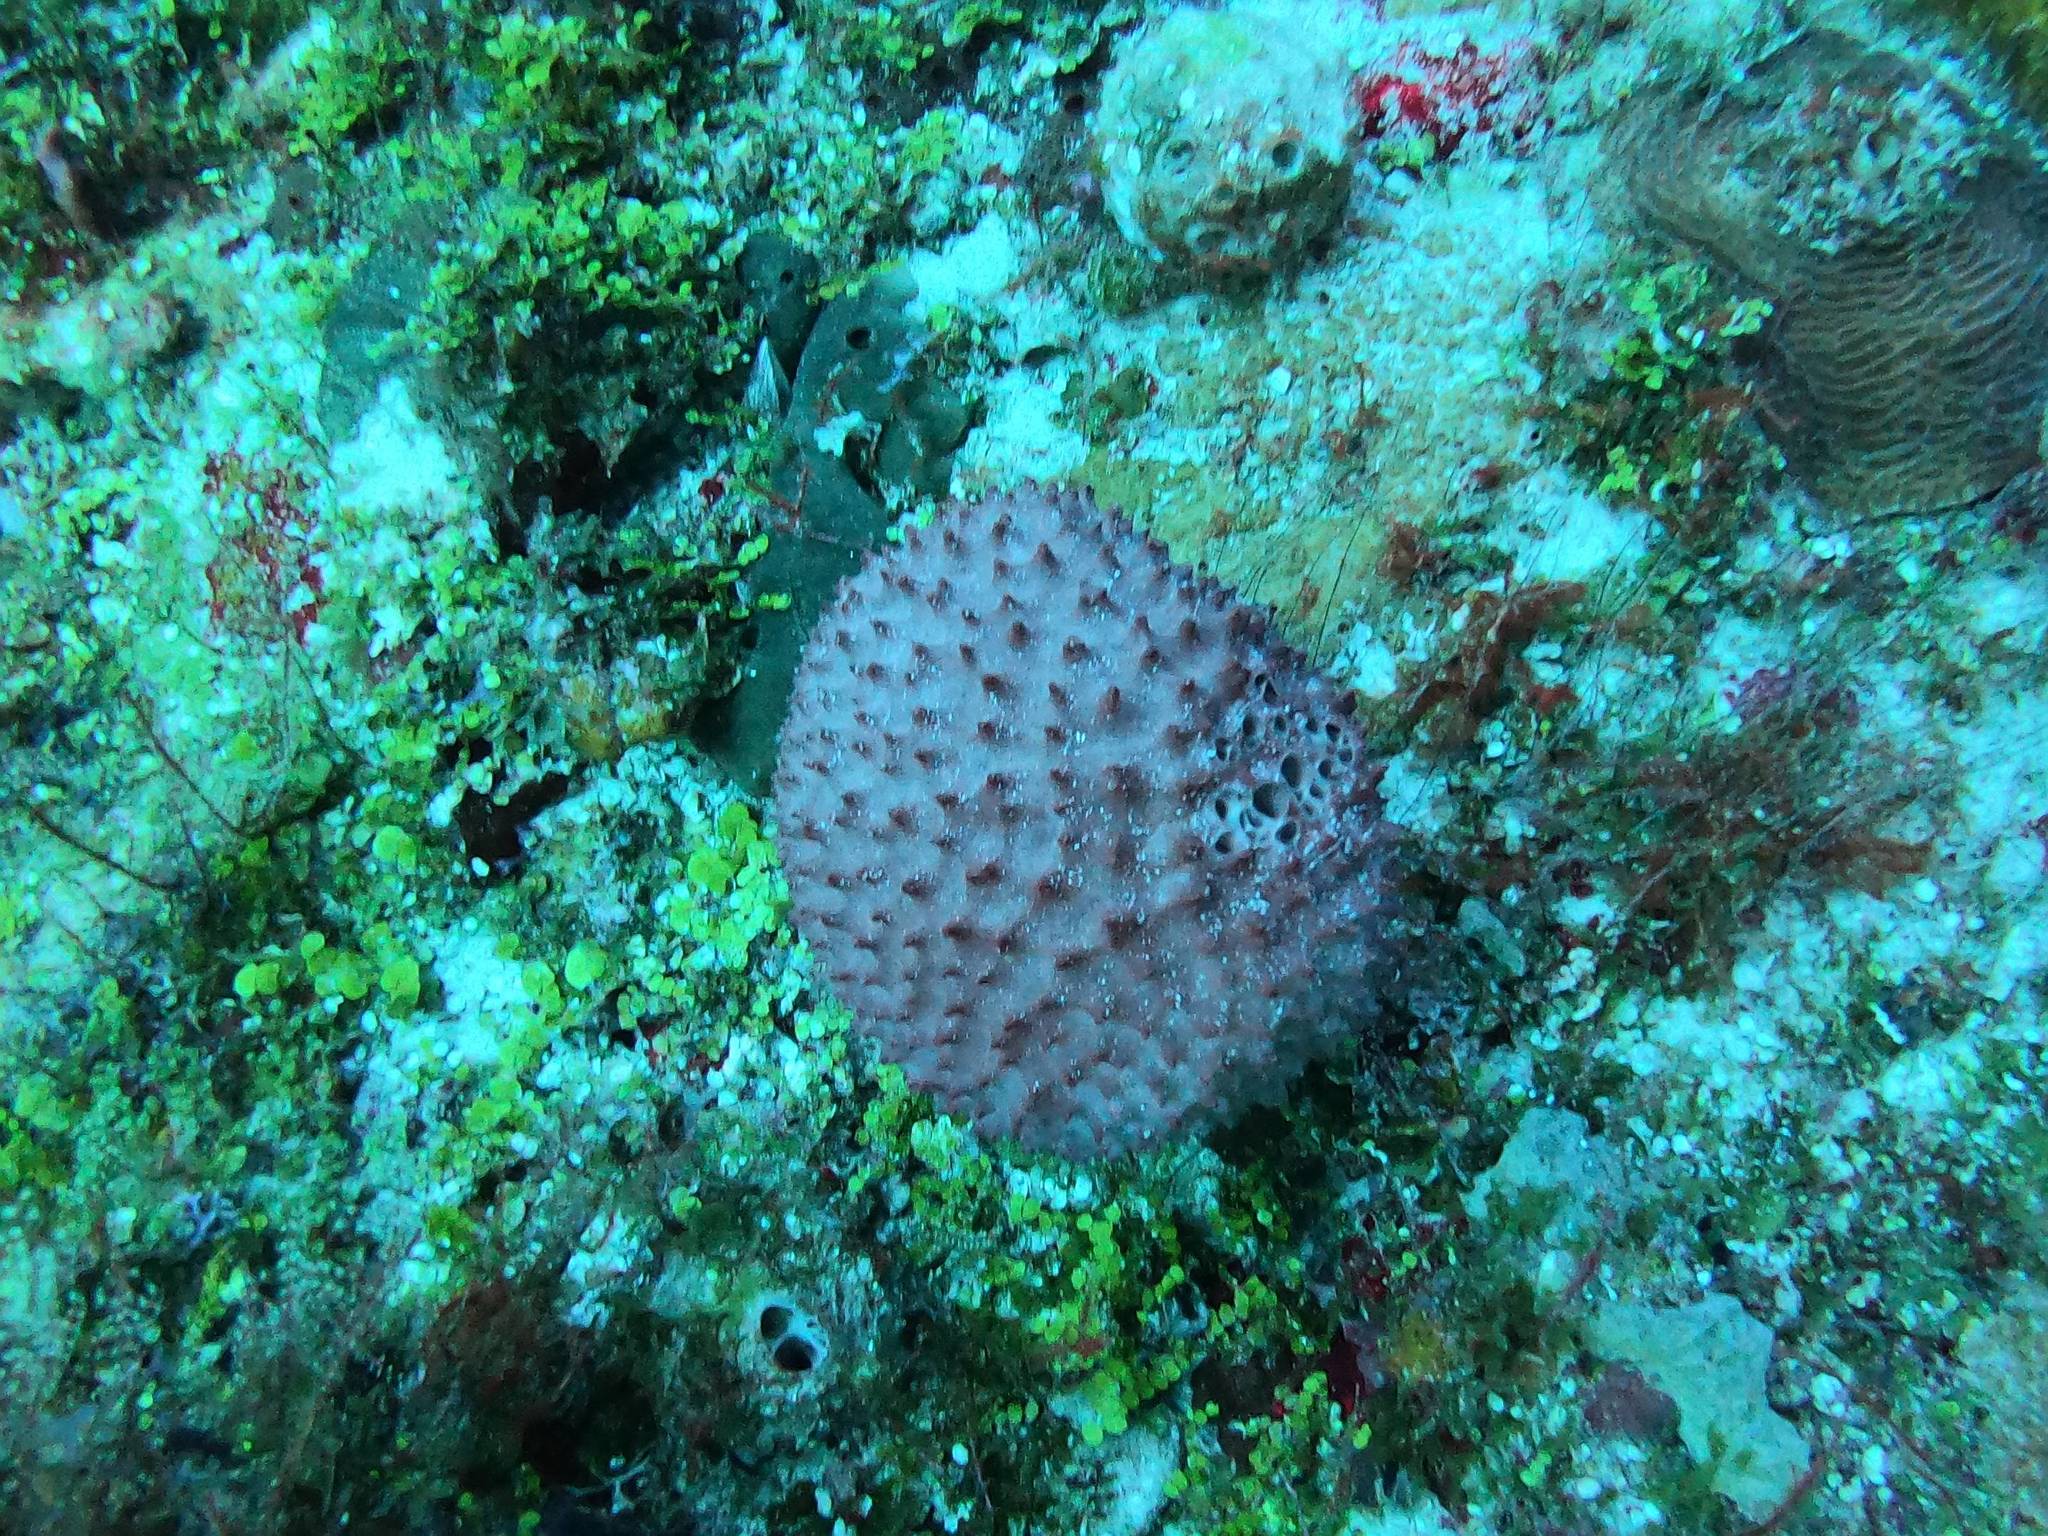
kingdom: Animalia
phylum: Porifera
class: Demospongiae
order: Dictyoceratida
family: Irciniidae
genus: Ircinia
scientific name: Ircinia felix
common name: Stinker sponge
